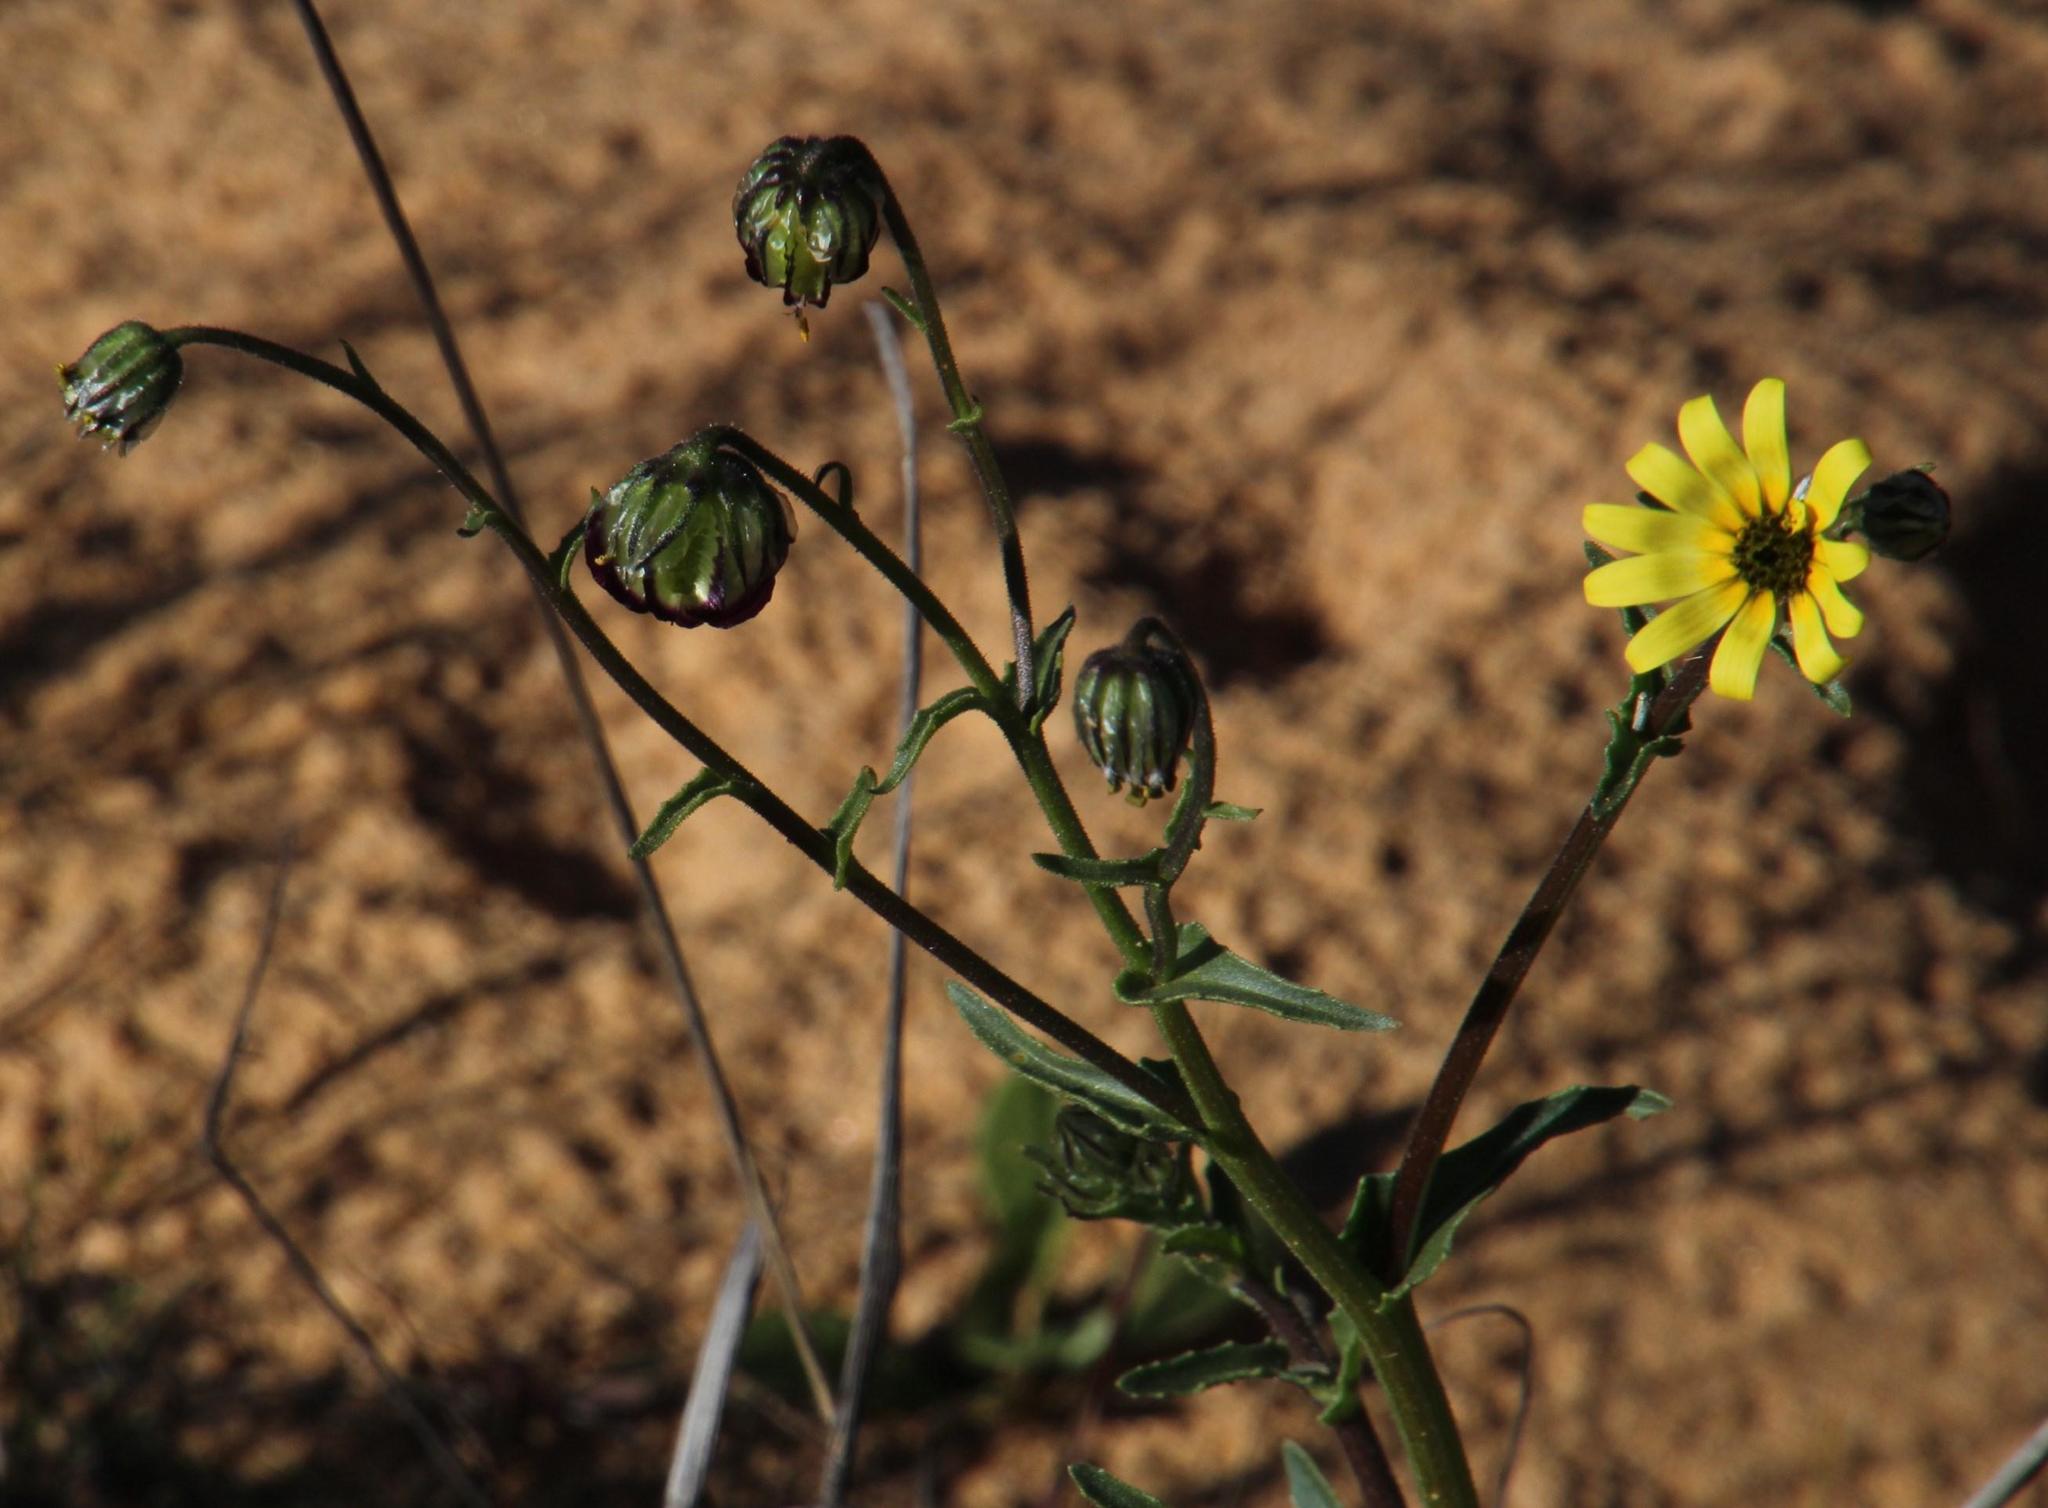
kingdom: Plantae
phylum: Tracheophyta
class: Magnoliopsida
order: Asterales
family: Asteraceae
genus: Osteospermum
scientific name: Osteospermum monstrosum
